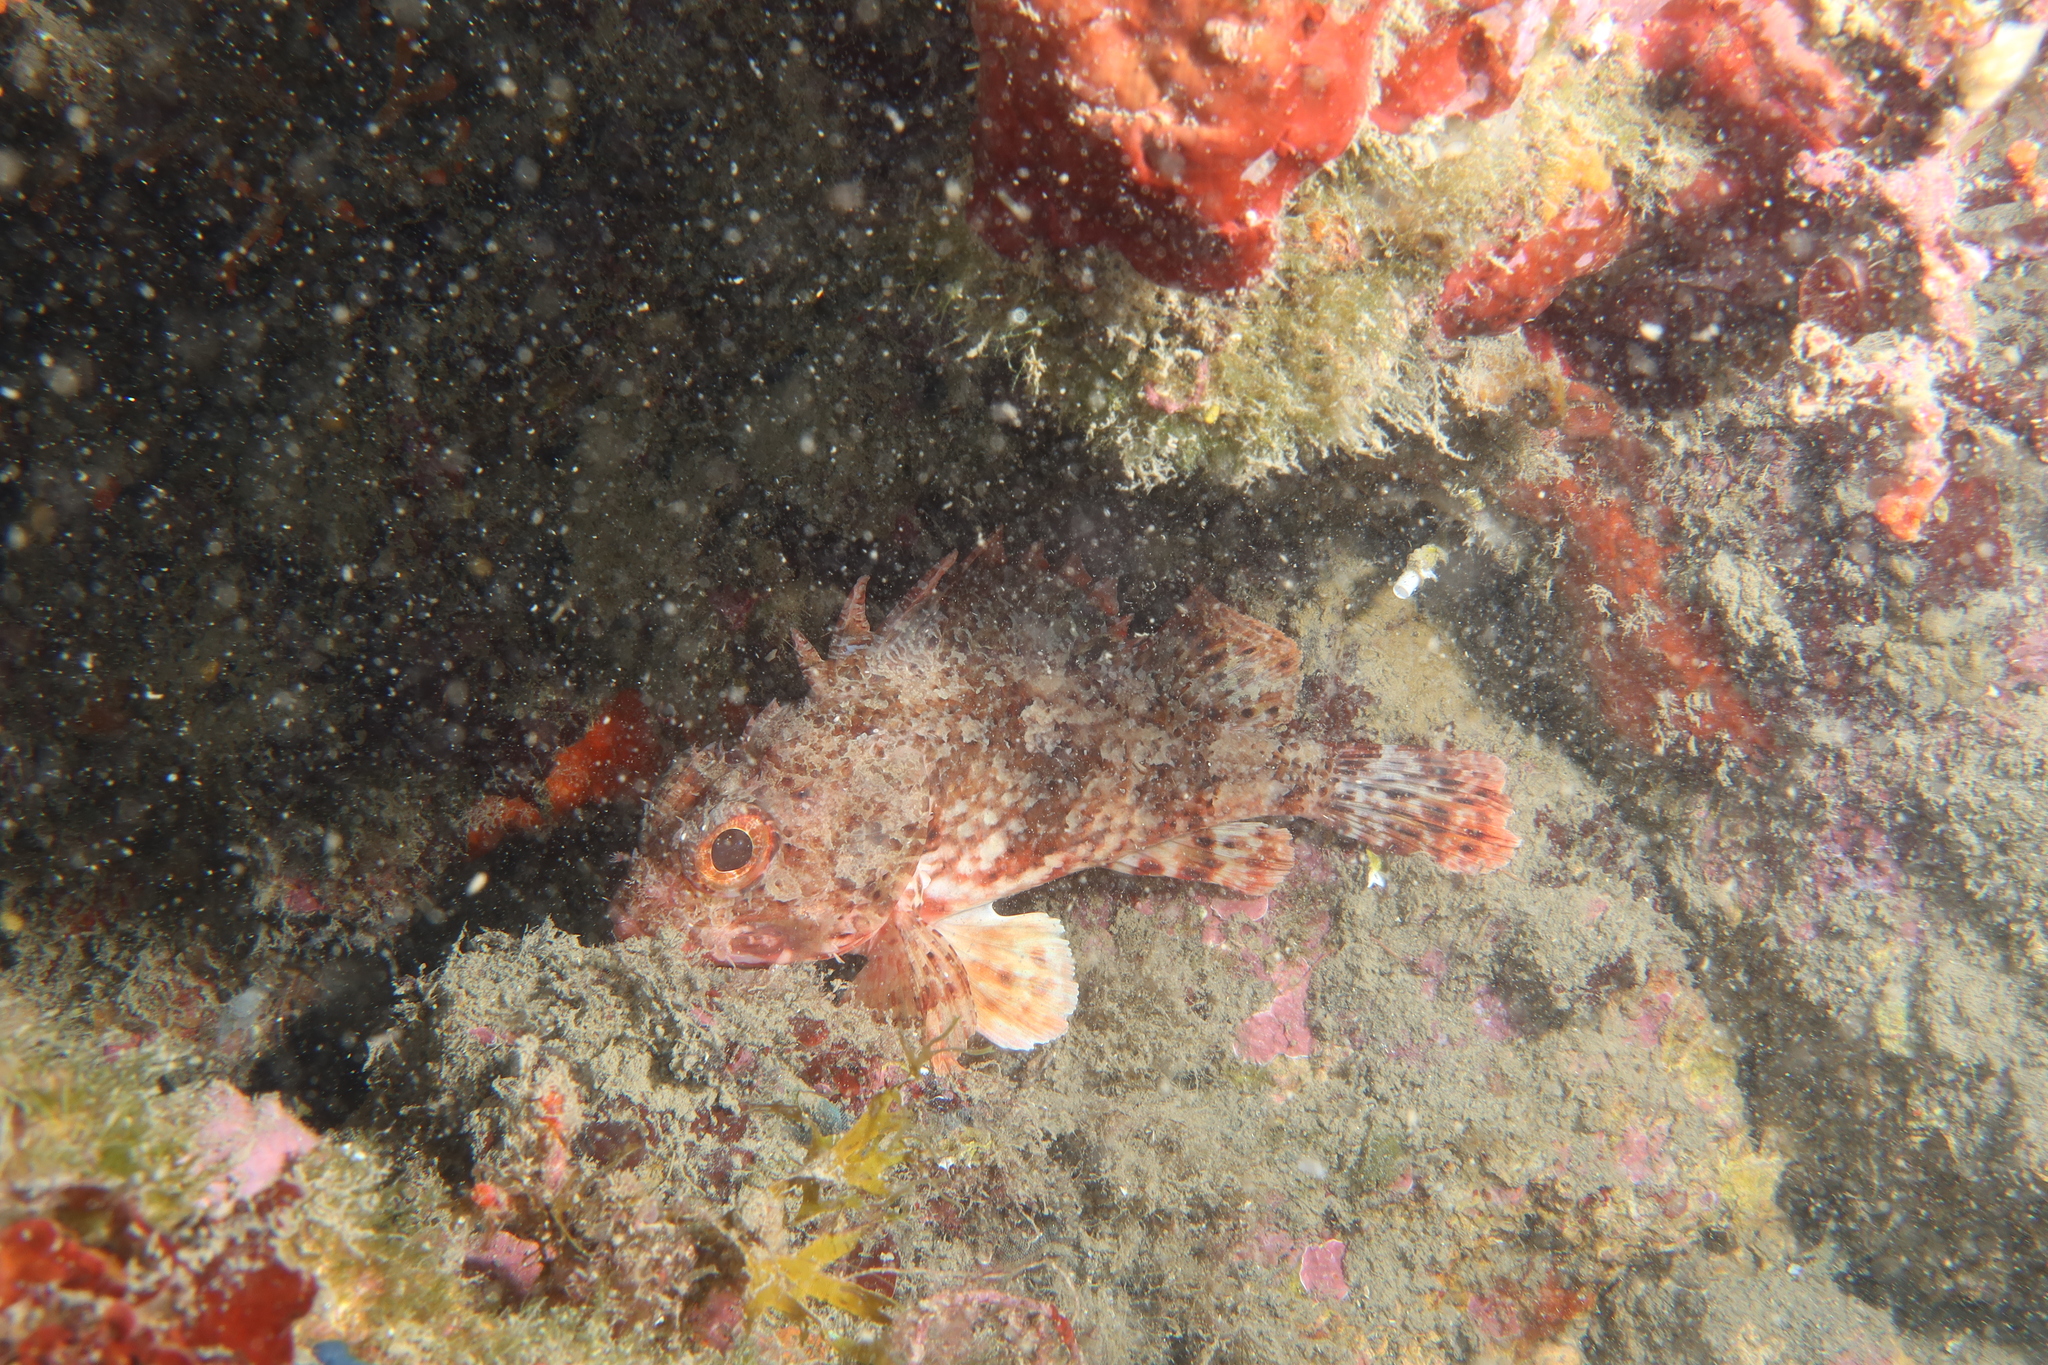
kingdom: Animalia
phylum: Chordata
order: Scorpaeniformes
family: Scorpaenidae
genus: Scorpaena
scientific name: Scorpaena notata
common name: Small red scorpionfish
